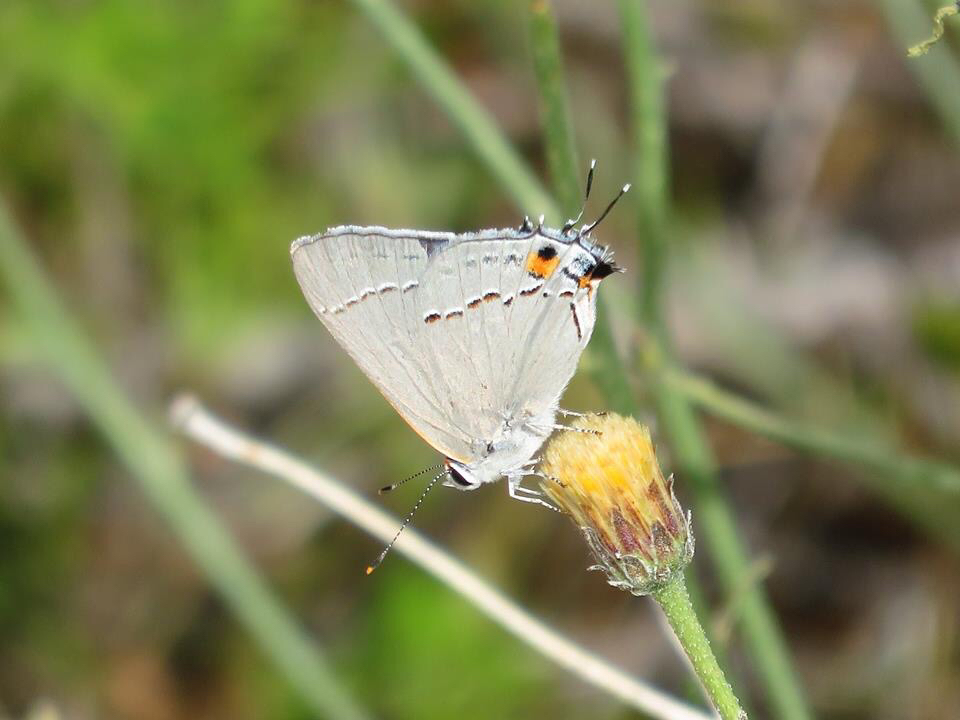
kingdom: Animalia
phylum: Arthropoda
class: Insecta
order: Lepidoptera
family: Lycaenidae
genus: Strymon
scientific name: Strymon melinus
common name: Gray hairstreak
